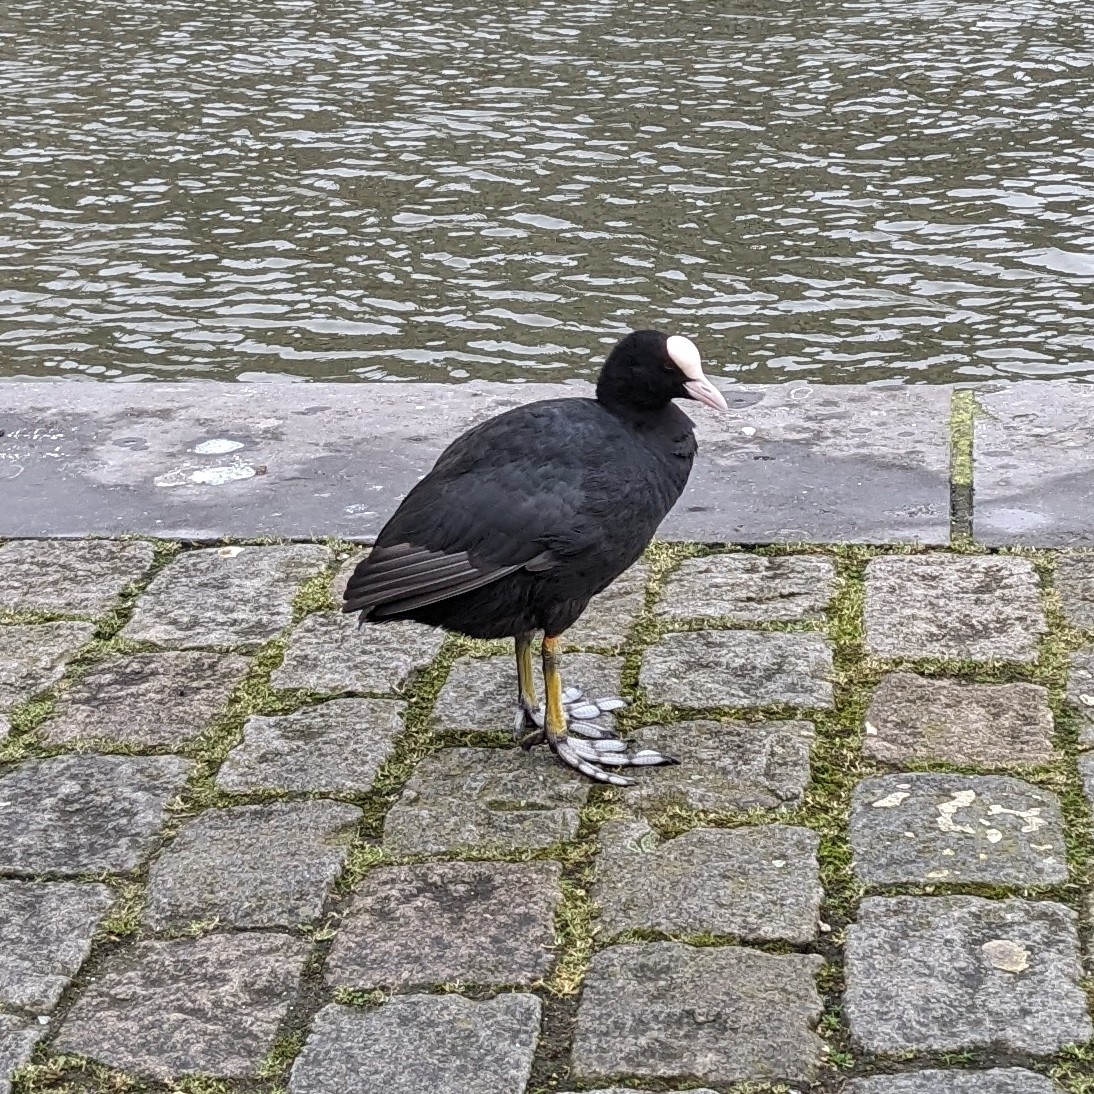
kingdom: Animalia
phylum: Chordata
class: Aves
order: Gruiformes
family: Rallidae
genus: Fulica
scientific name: Fulica atra
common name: Eurasian coot
